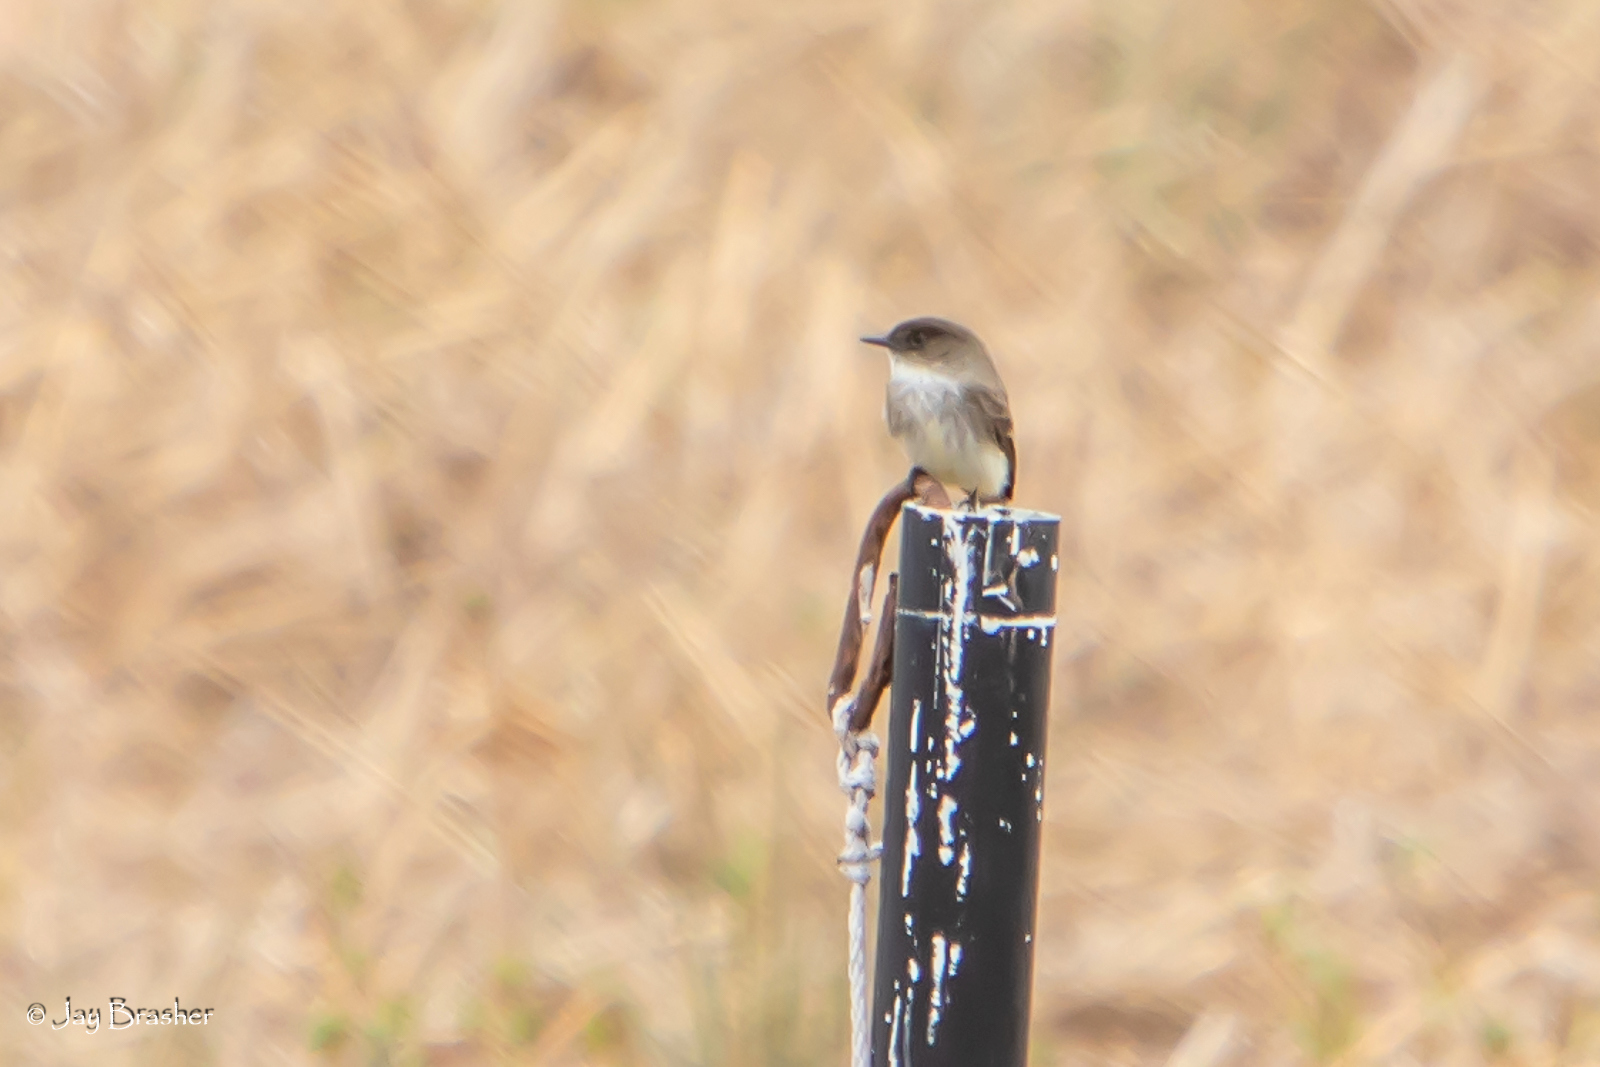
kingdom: Animalia
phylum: Chordata
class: Aves
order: Passeriformes
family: Tyrannidae
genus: Sayornis
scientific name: Sayornis phoebe
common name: Eastern phoebe
